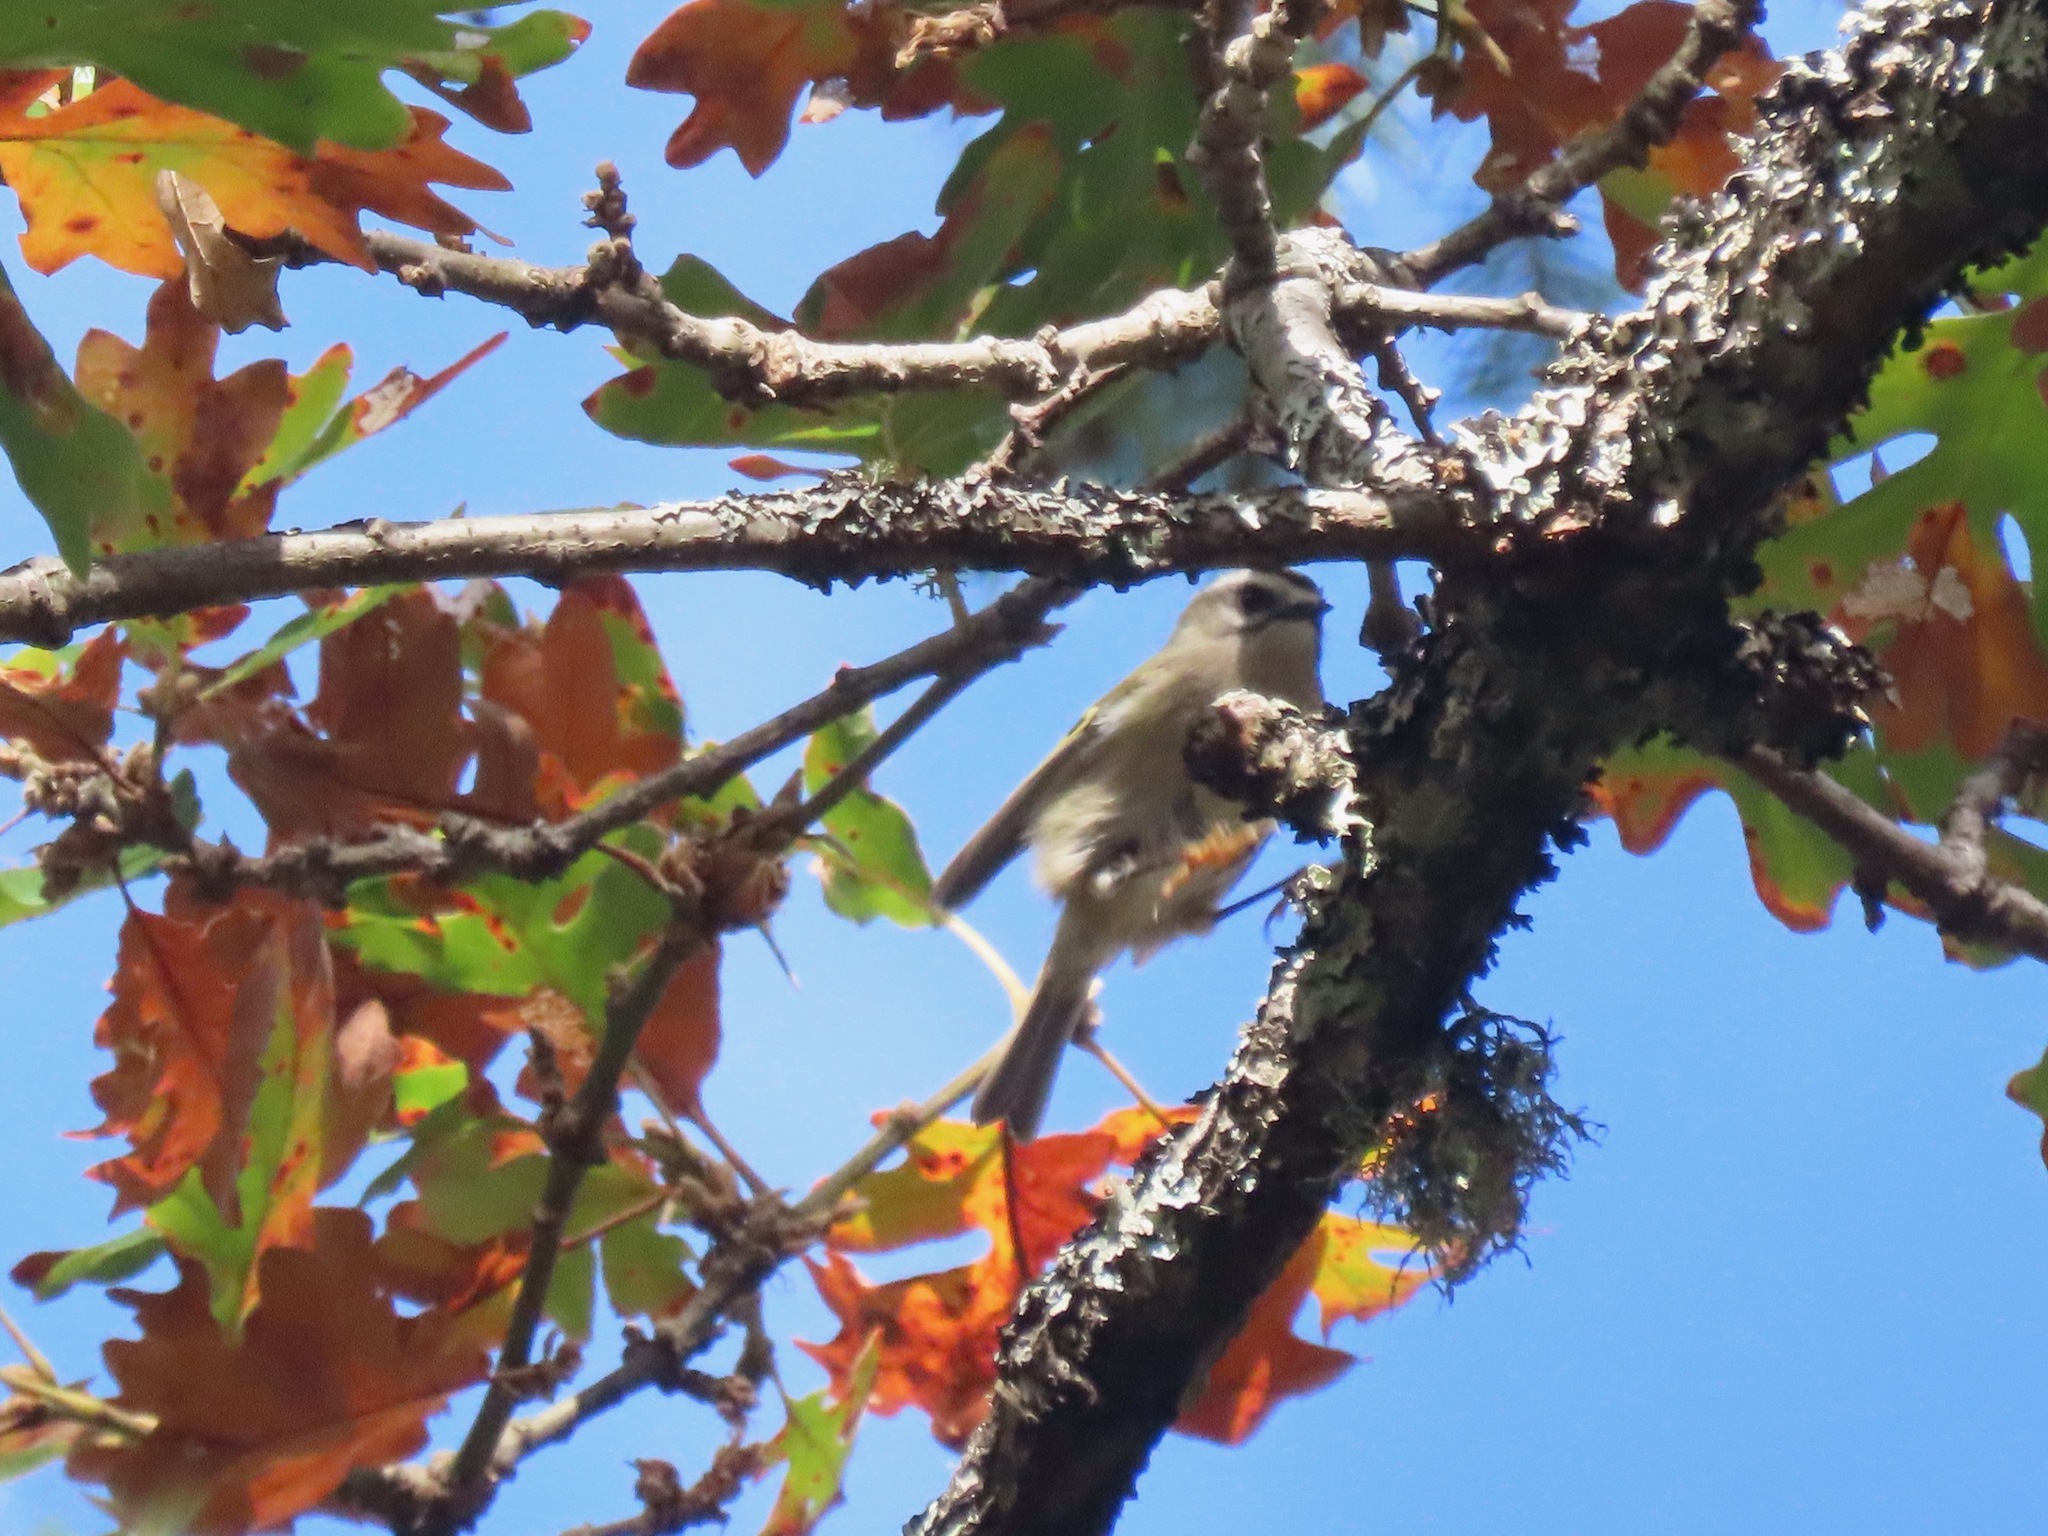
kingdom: Animalia
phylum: Chordata
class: Aves
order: Passeriformes
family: Regulidae
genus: Regulus
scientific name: Regulus satrapa
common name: Golden-crowned kinglet
